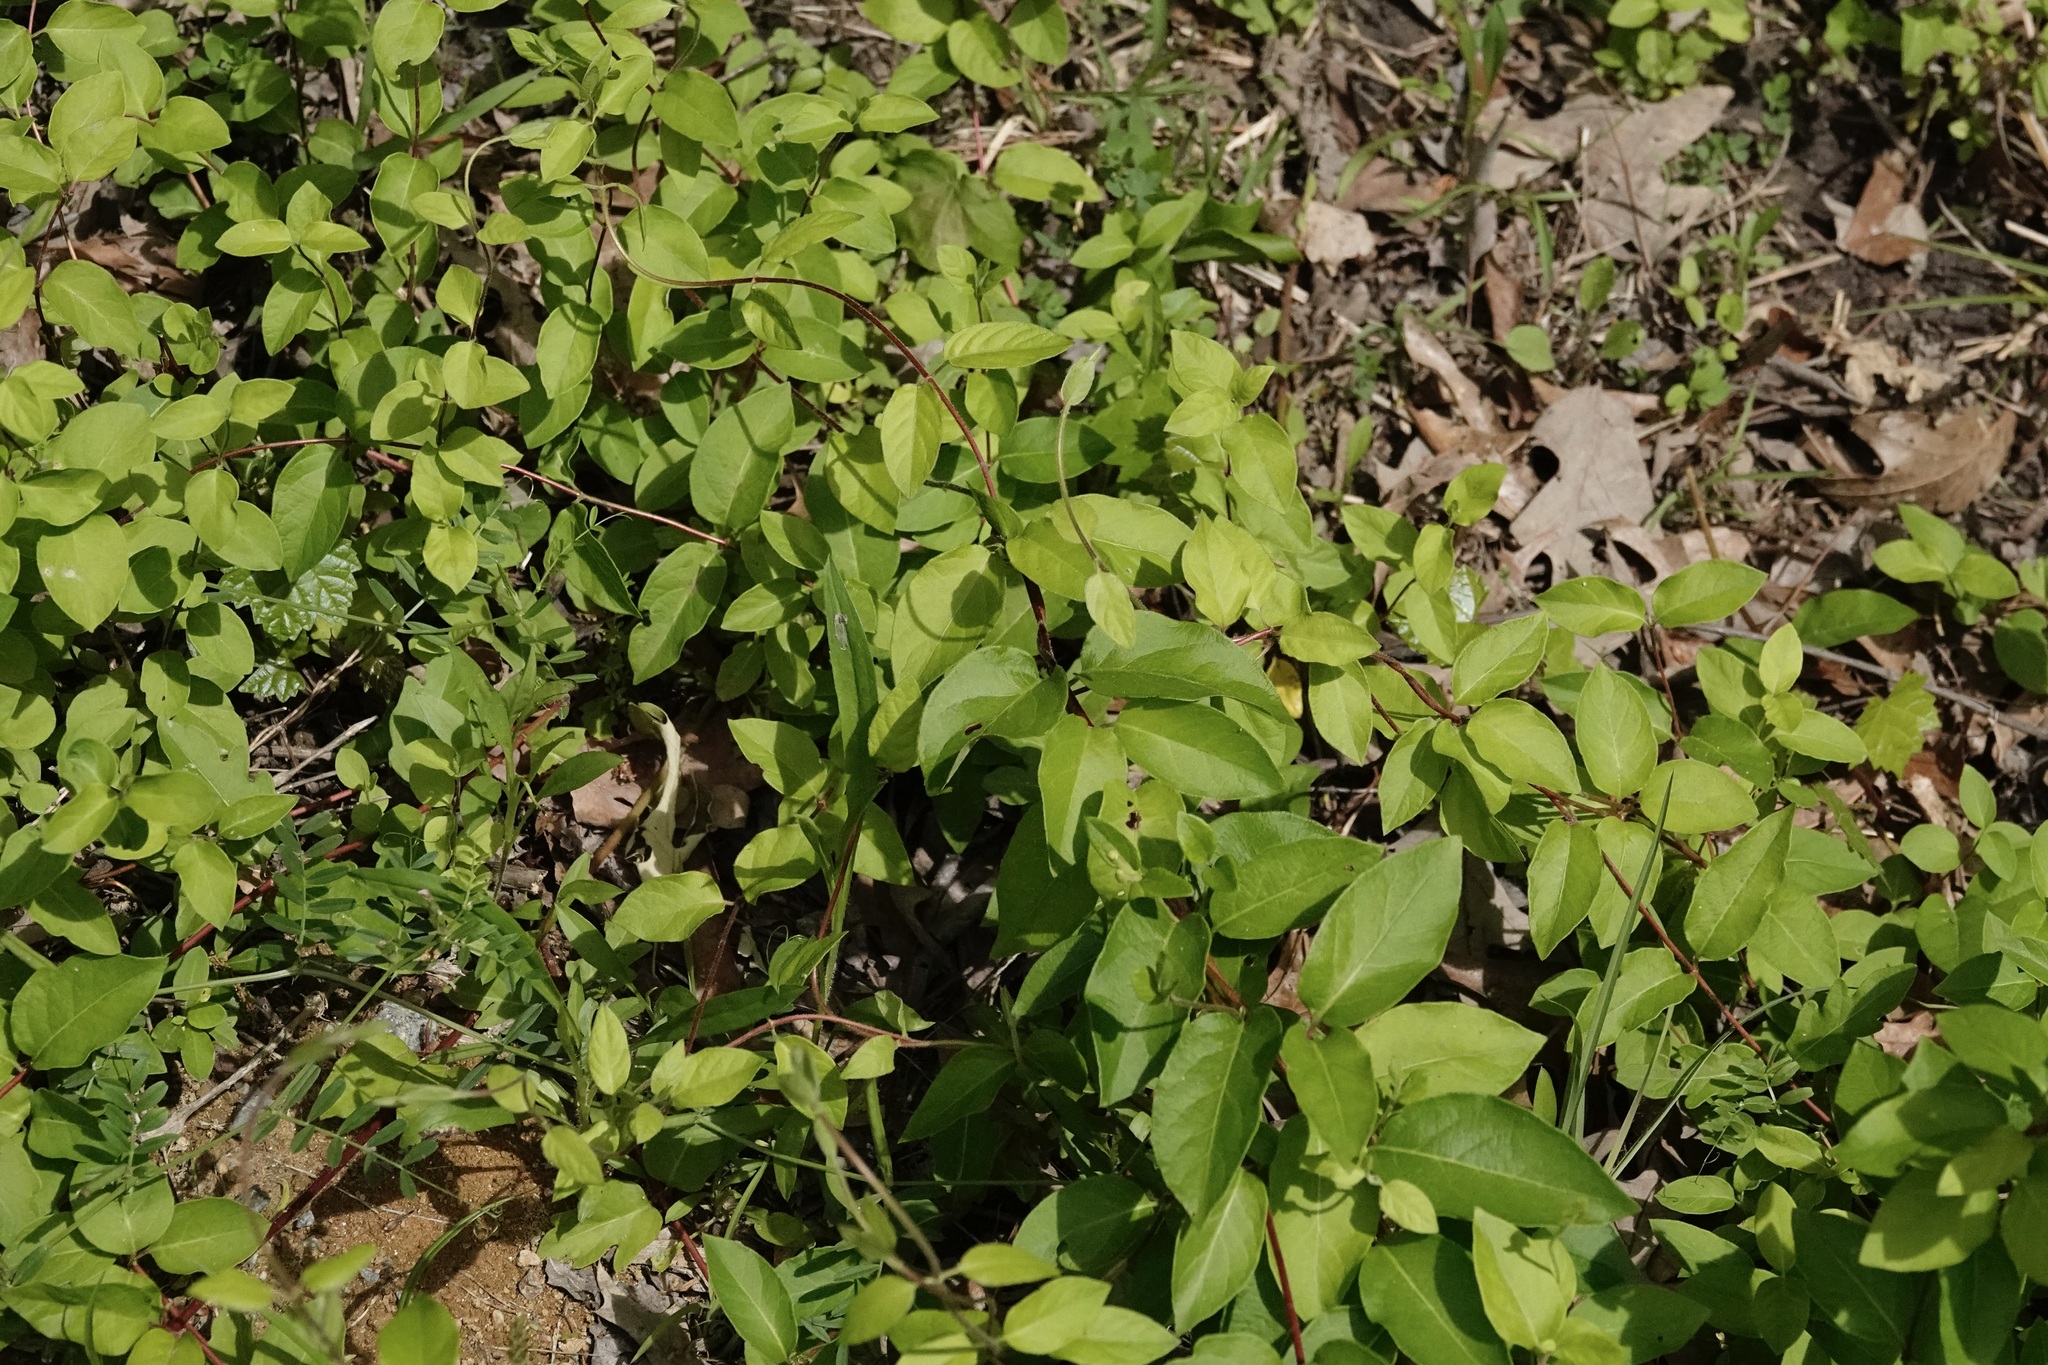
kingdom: Plantae
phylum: Tracheophyta
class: Magnoliopsida
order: Dipsacales
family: Caprifoliaceae
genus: Lonicera
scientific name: Lonicera japonica
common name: Japanese honeysuckle
